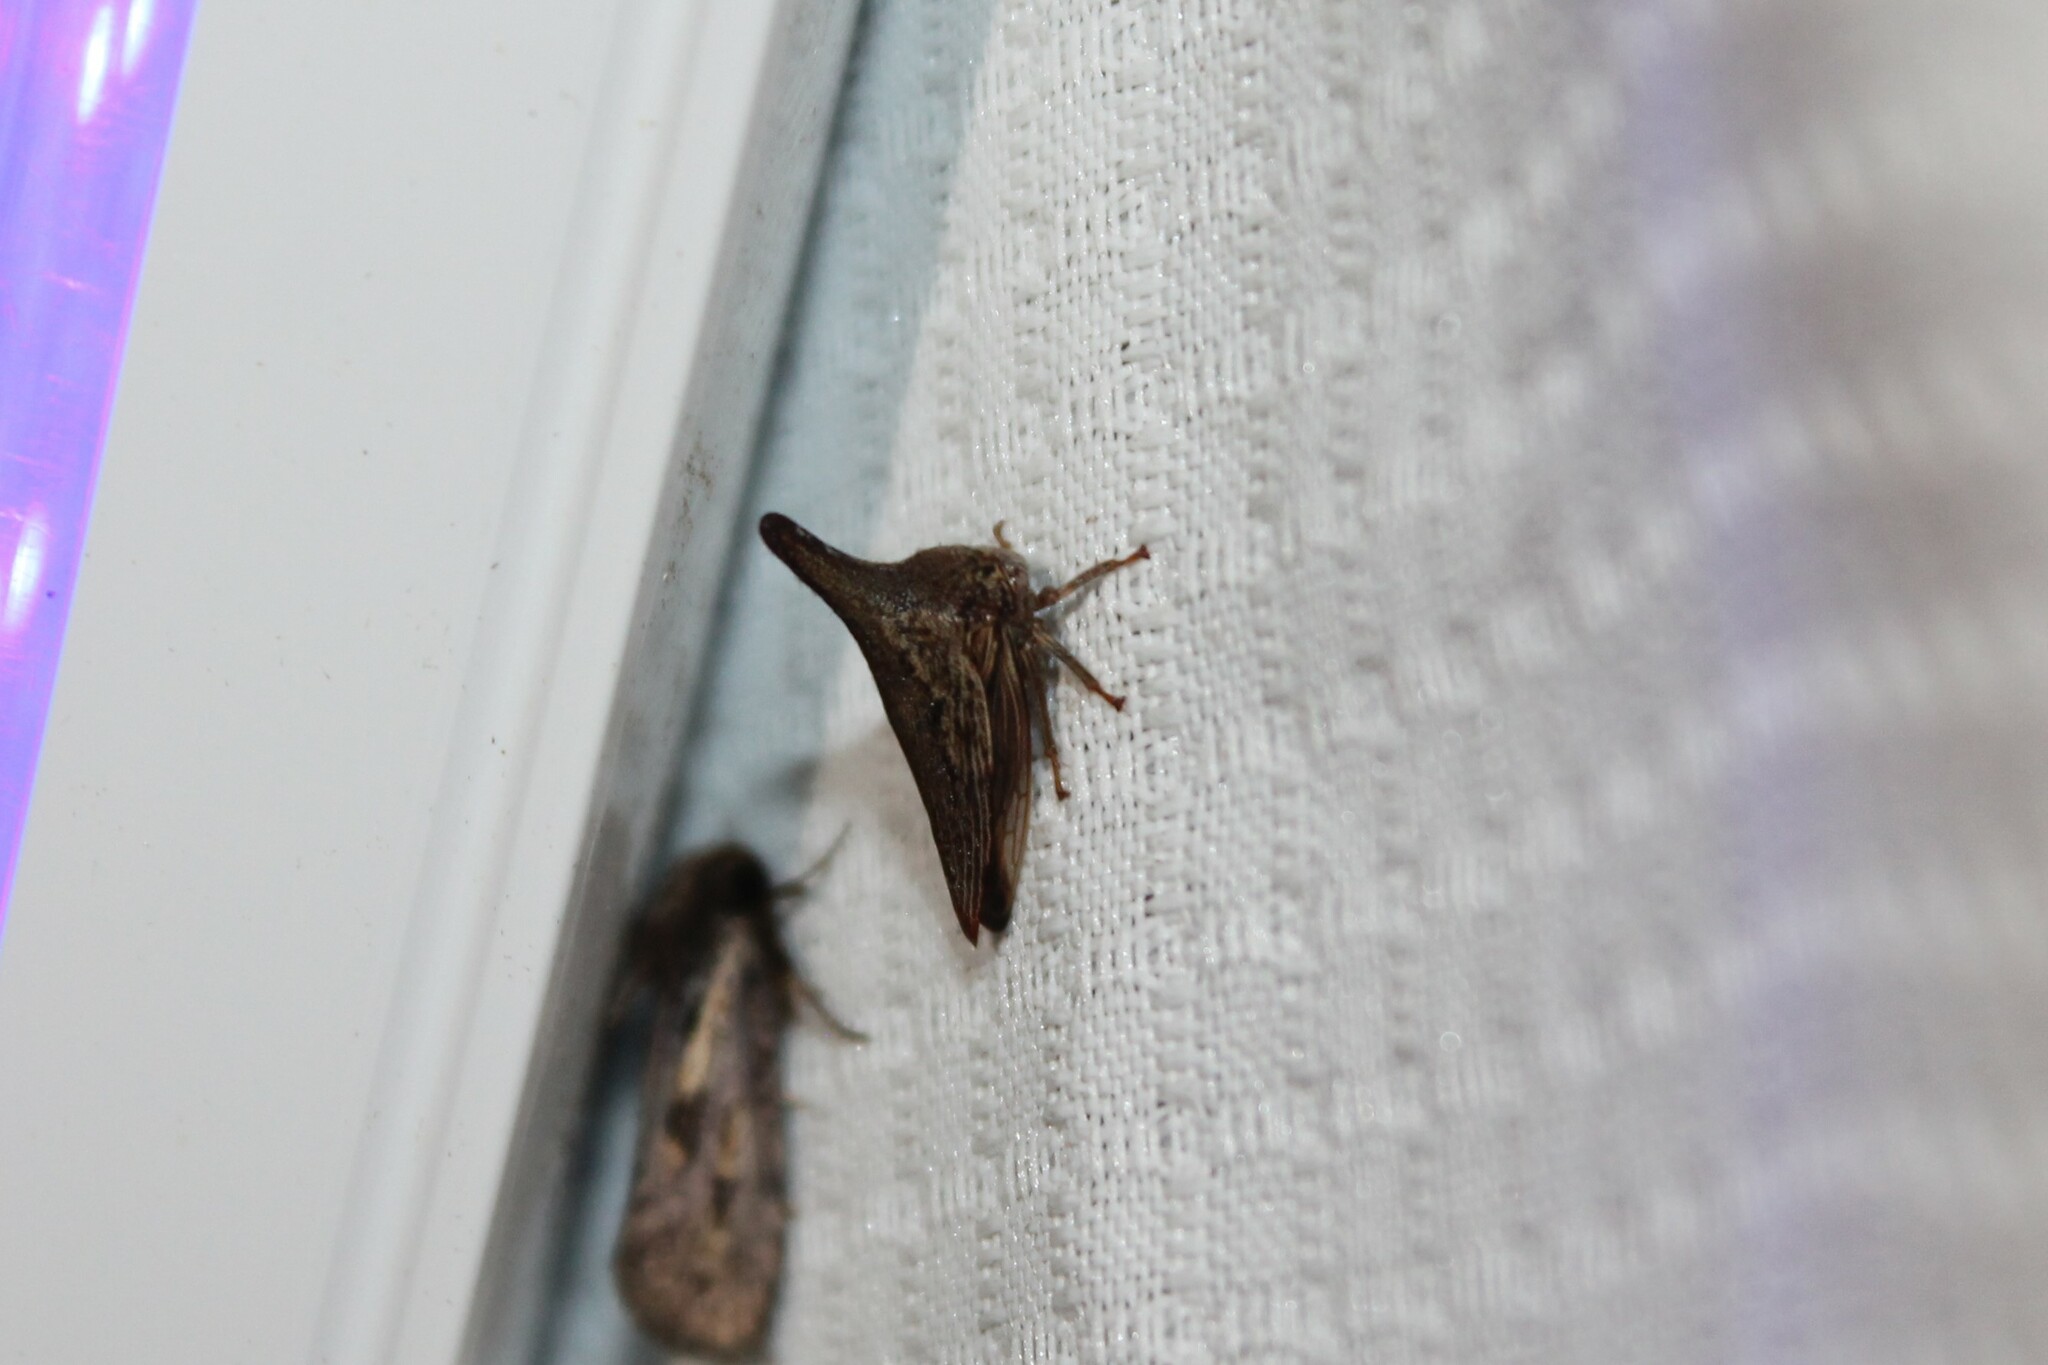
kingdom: Animalia
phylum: Arthropoda
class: Insecta
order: Hemiptera
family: Membracidae
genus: Thelia
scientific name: Thelia bimaculata
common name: Locust treehopper
